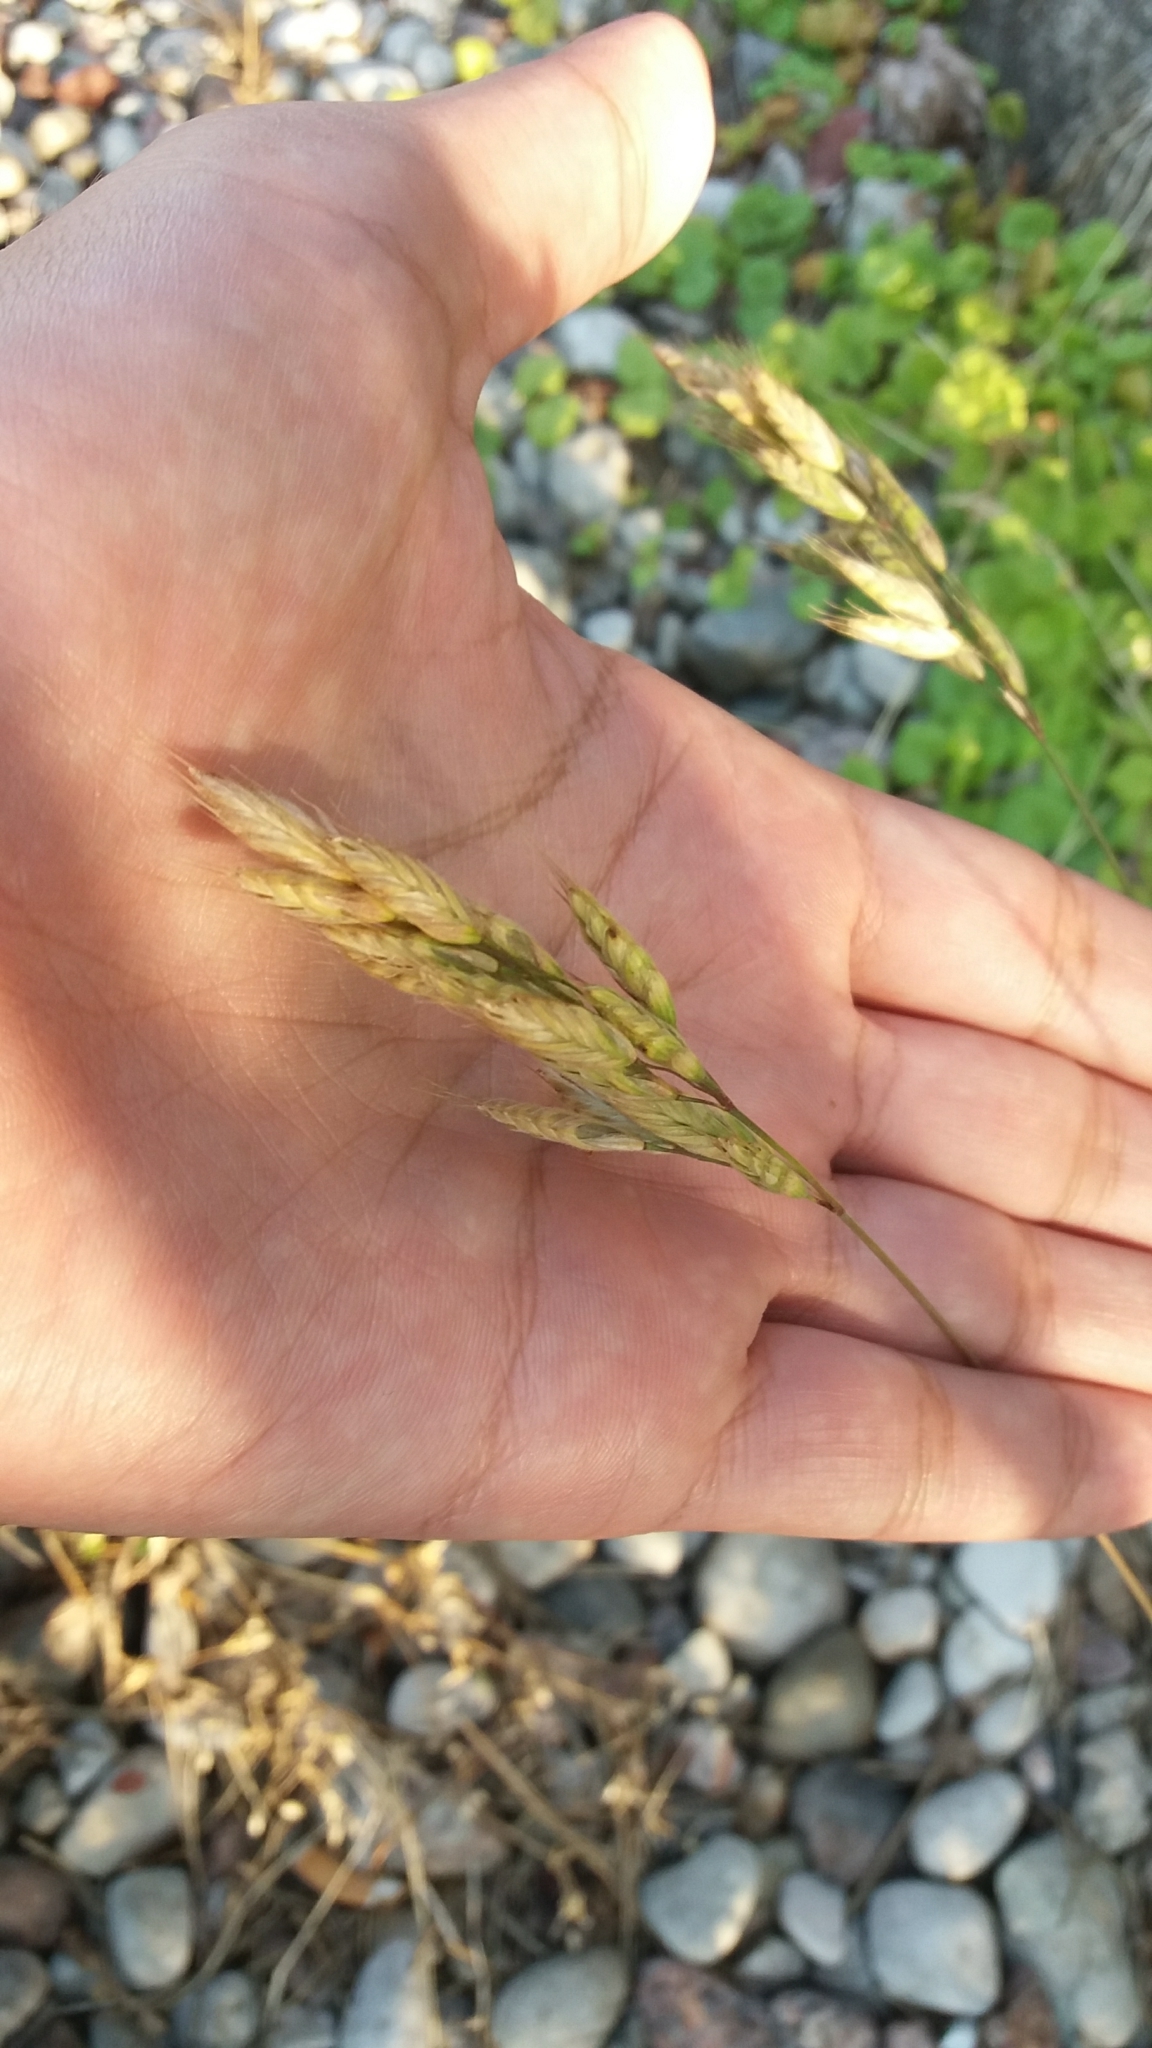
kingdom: Plantae
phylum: Tracheophyta
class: Liliopsida
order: Poales
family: Poaceae
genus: Bromus
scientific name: Bromus hordeaceus
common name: Soft brome
